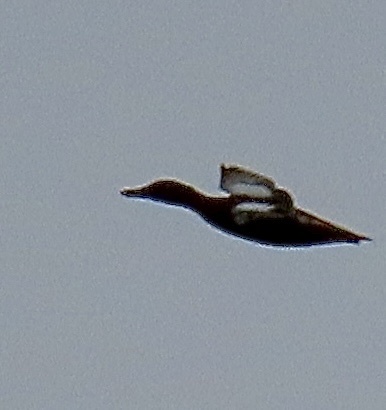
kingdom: Animalia
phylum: Chordata
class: Aves
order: Anseriformes
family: Anatidae
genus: Spatula
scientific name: Spatula cyanoptera
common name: Cinnamon teal
